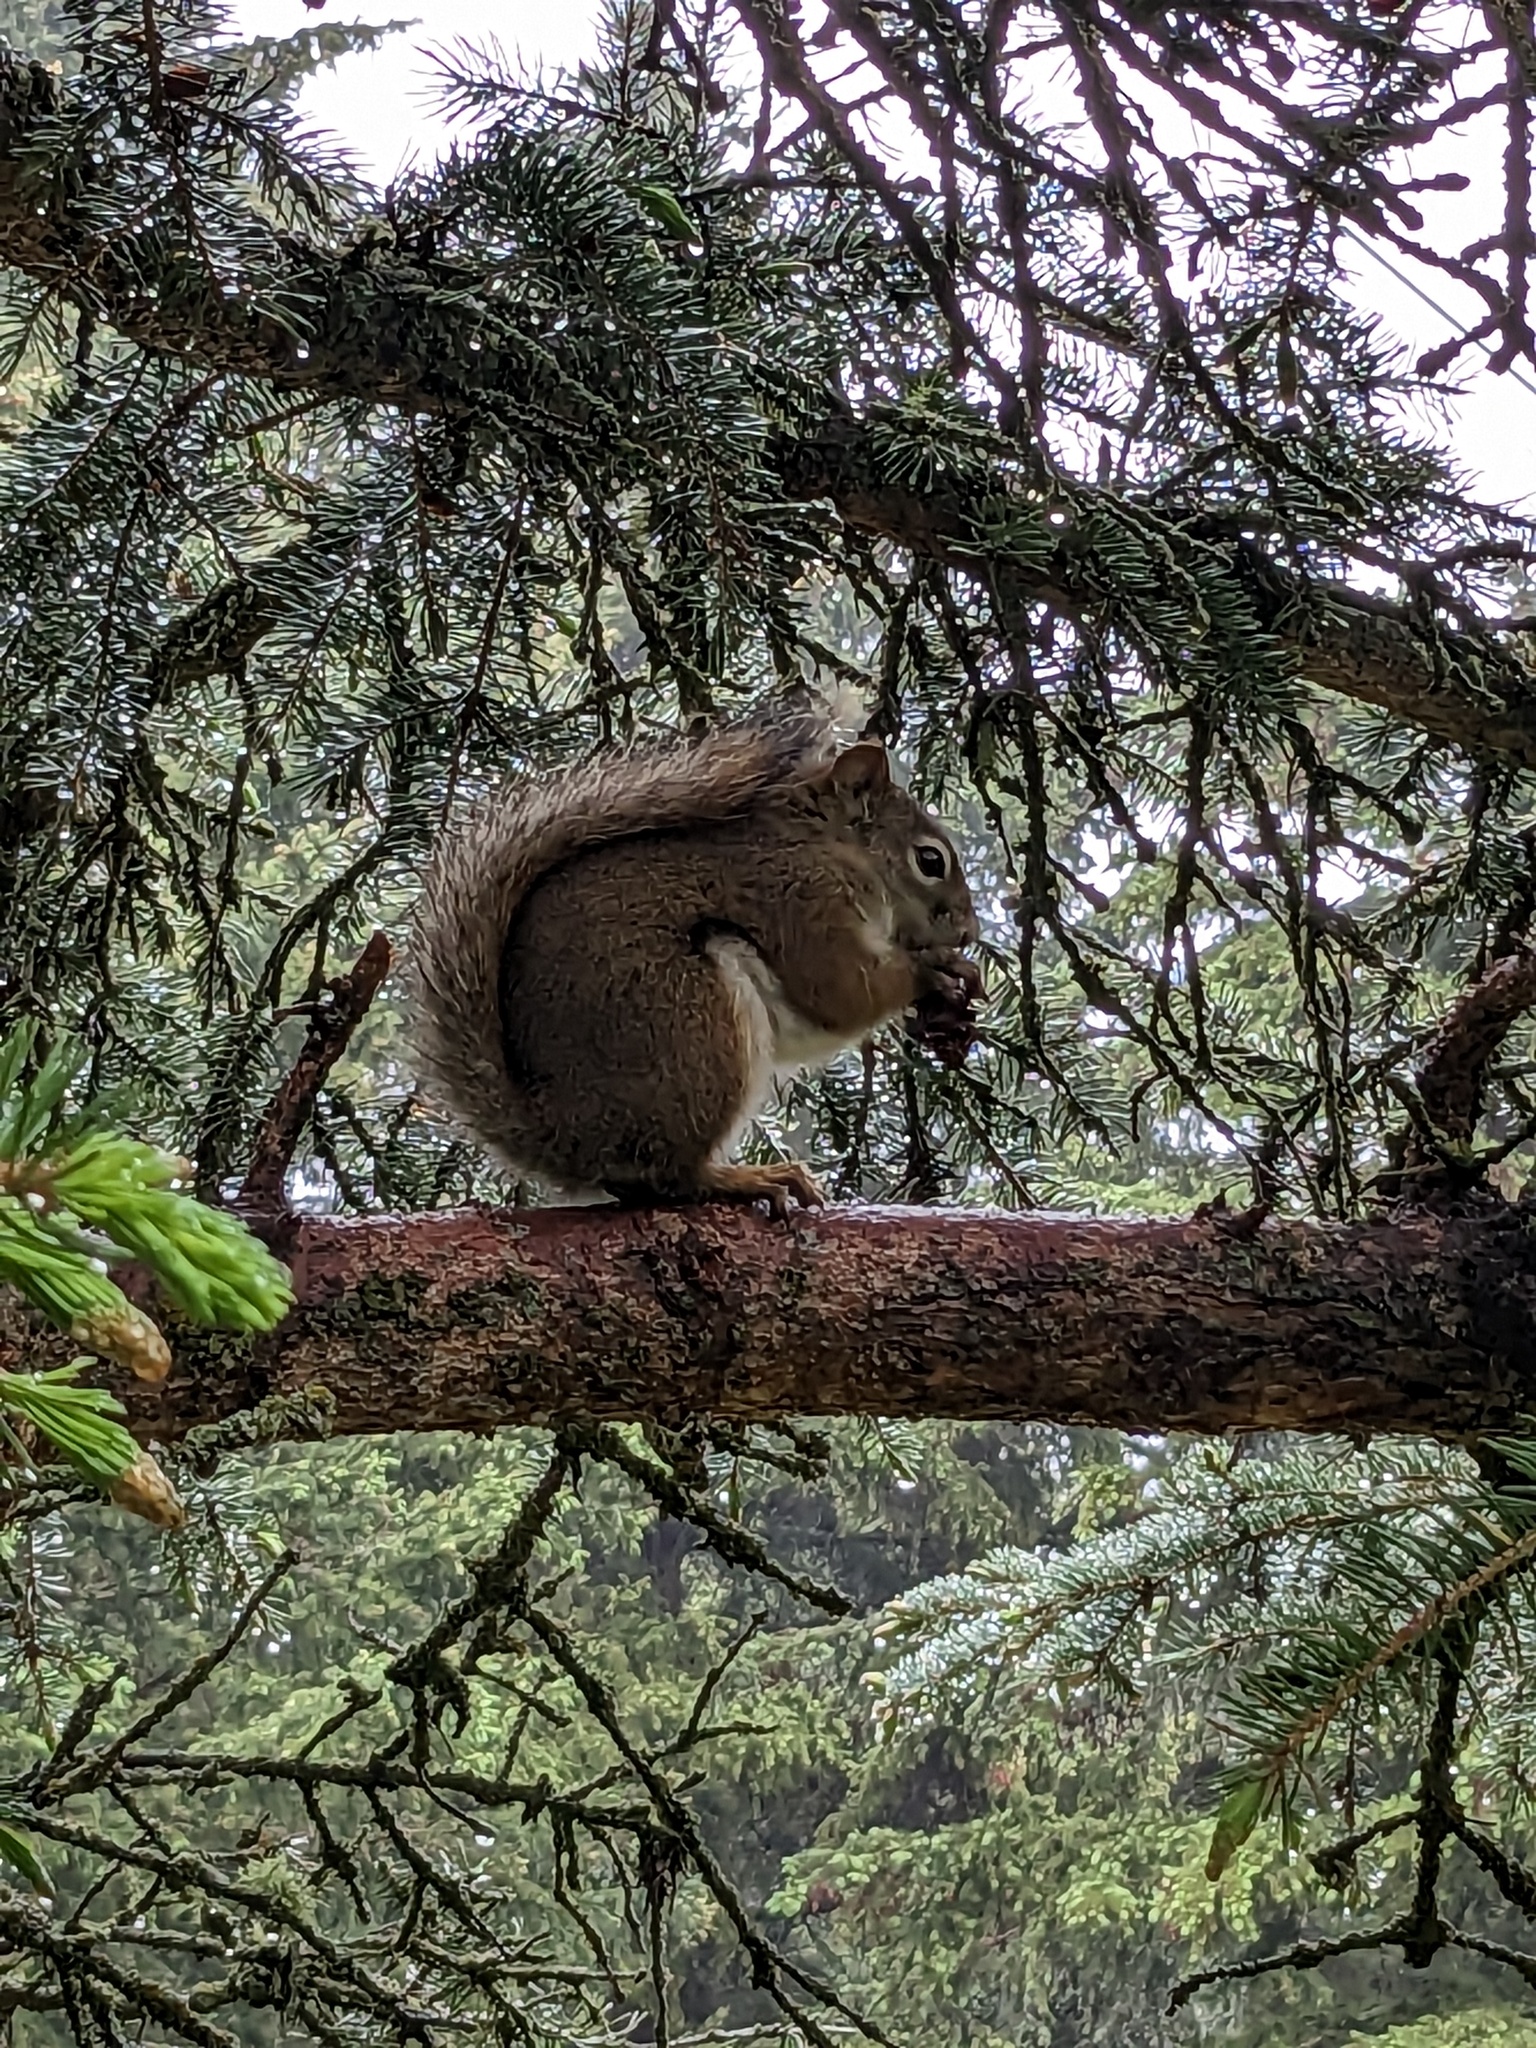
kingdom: Animalia
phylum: Chordata
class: Mammalia
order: Rodentia
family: Sciuridae
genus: Tamiasciurus
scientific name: Tamiasciurus hudsonicus
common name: Red squirrel
